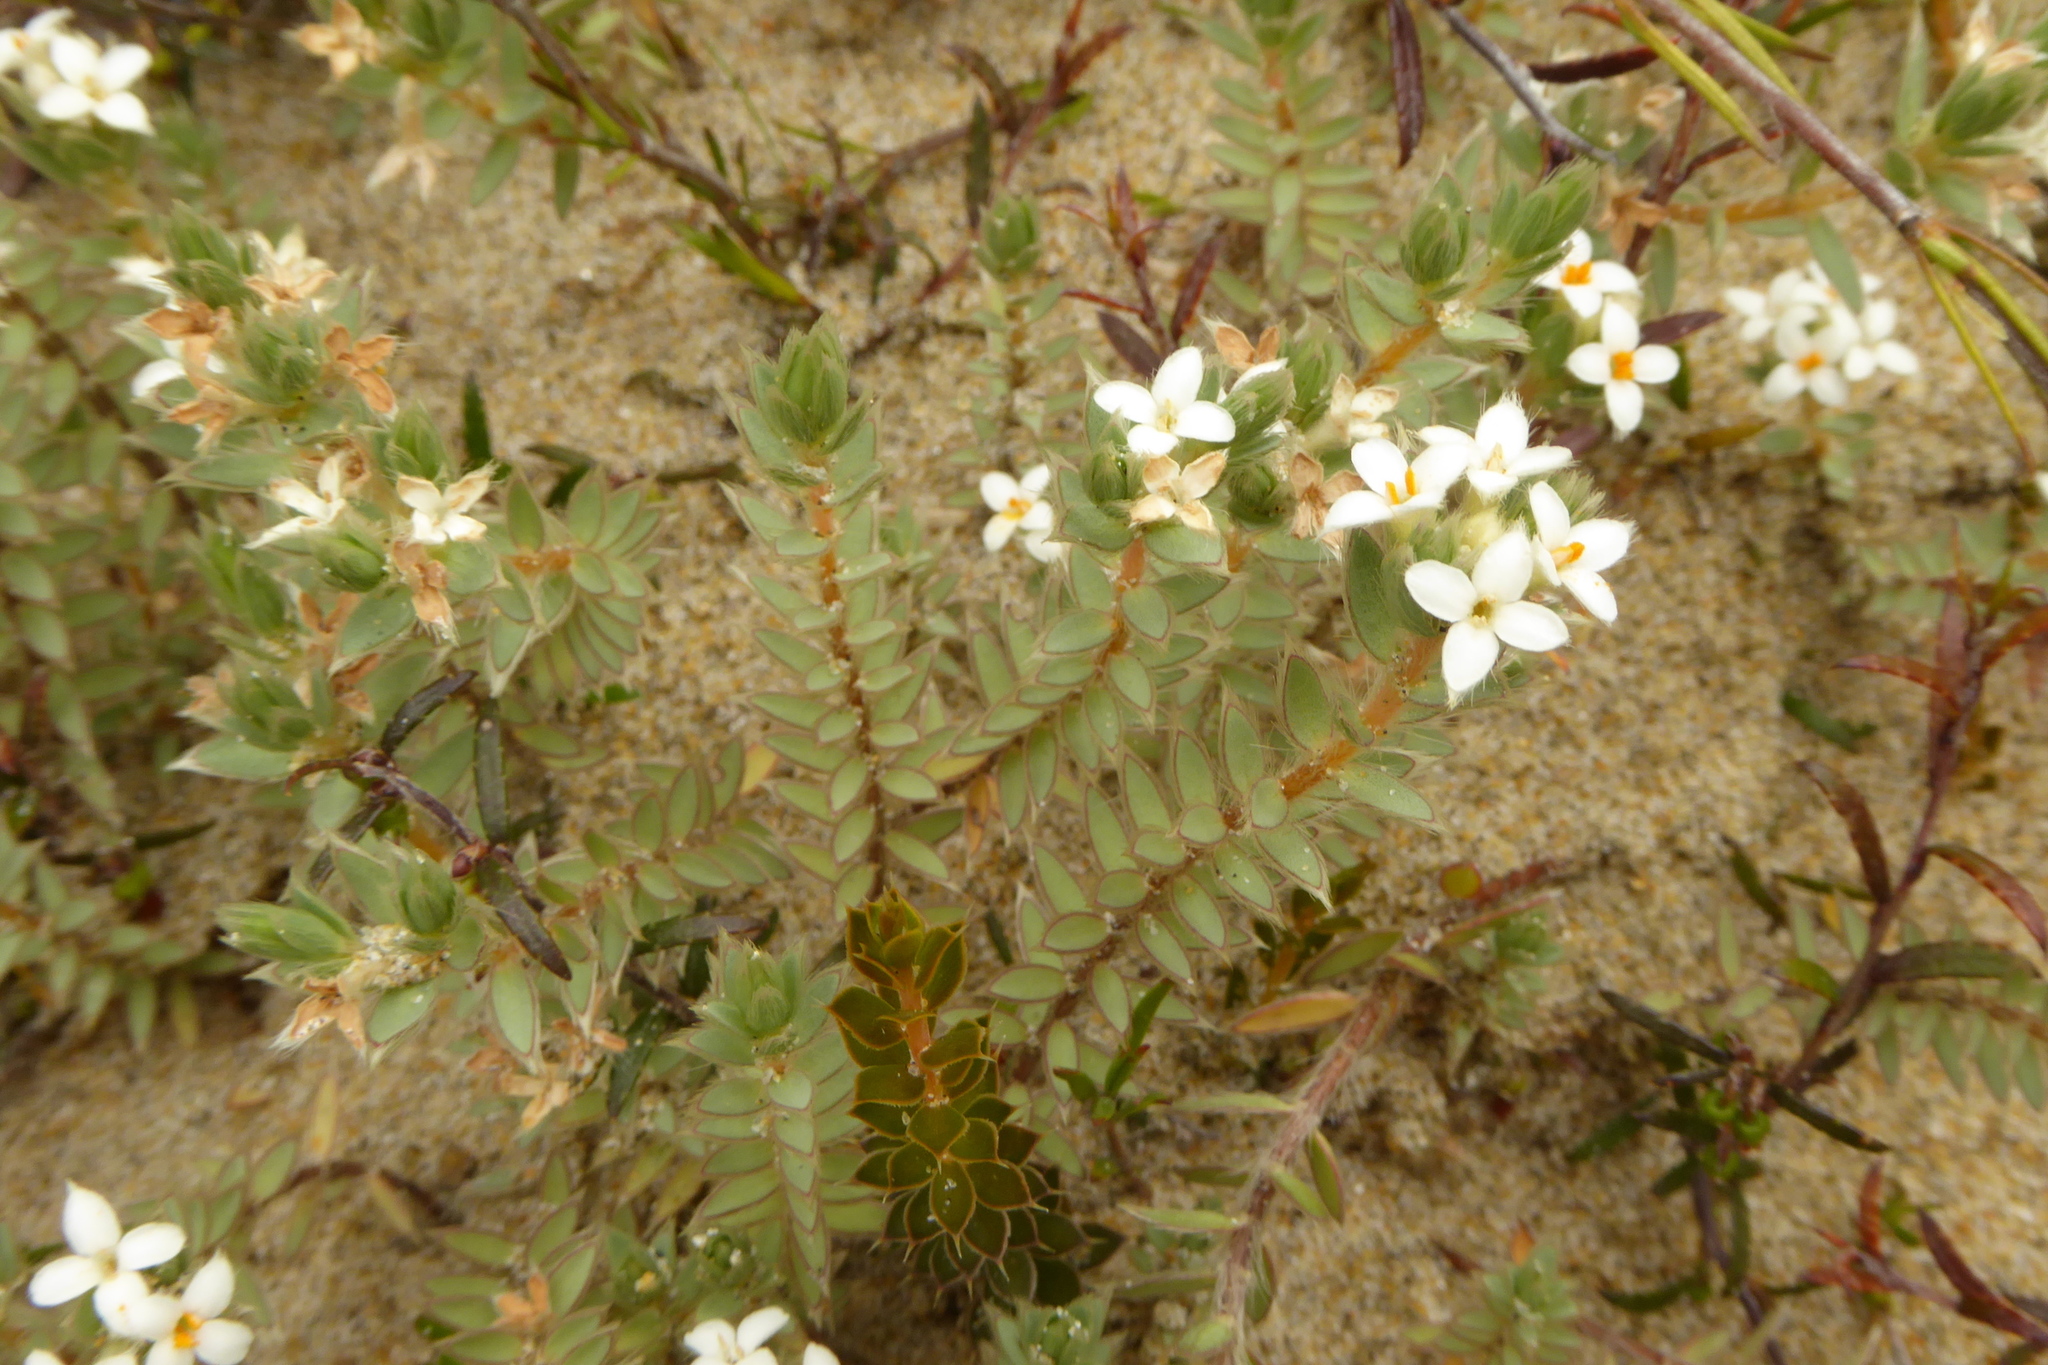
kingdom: Plantae
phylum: Tracheophyta
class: Magnoliopsida
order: Malvales
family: Thymelaeaceae
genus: Pimelea
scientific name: Pimelea lyallii
